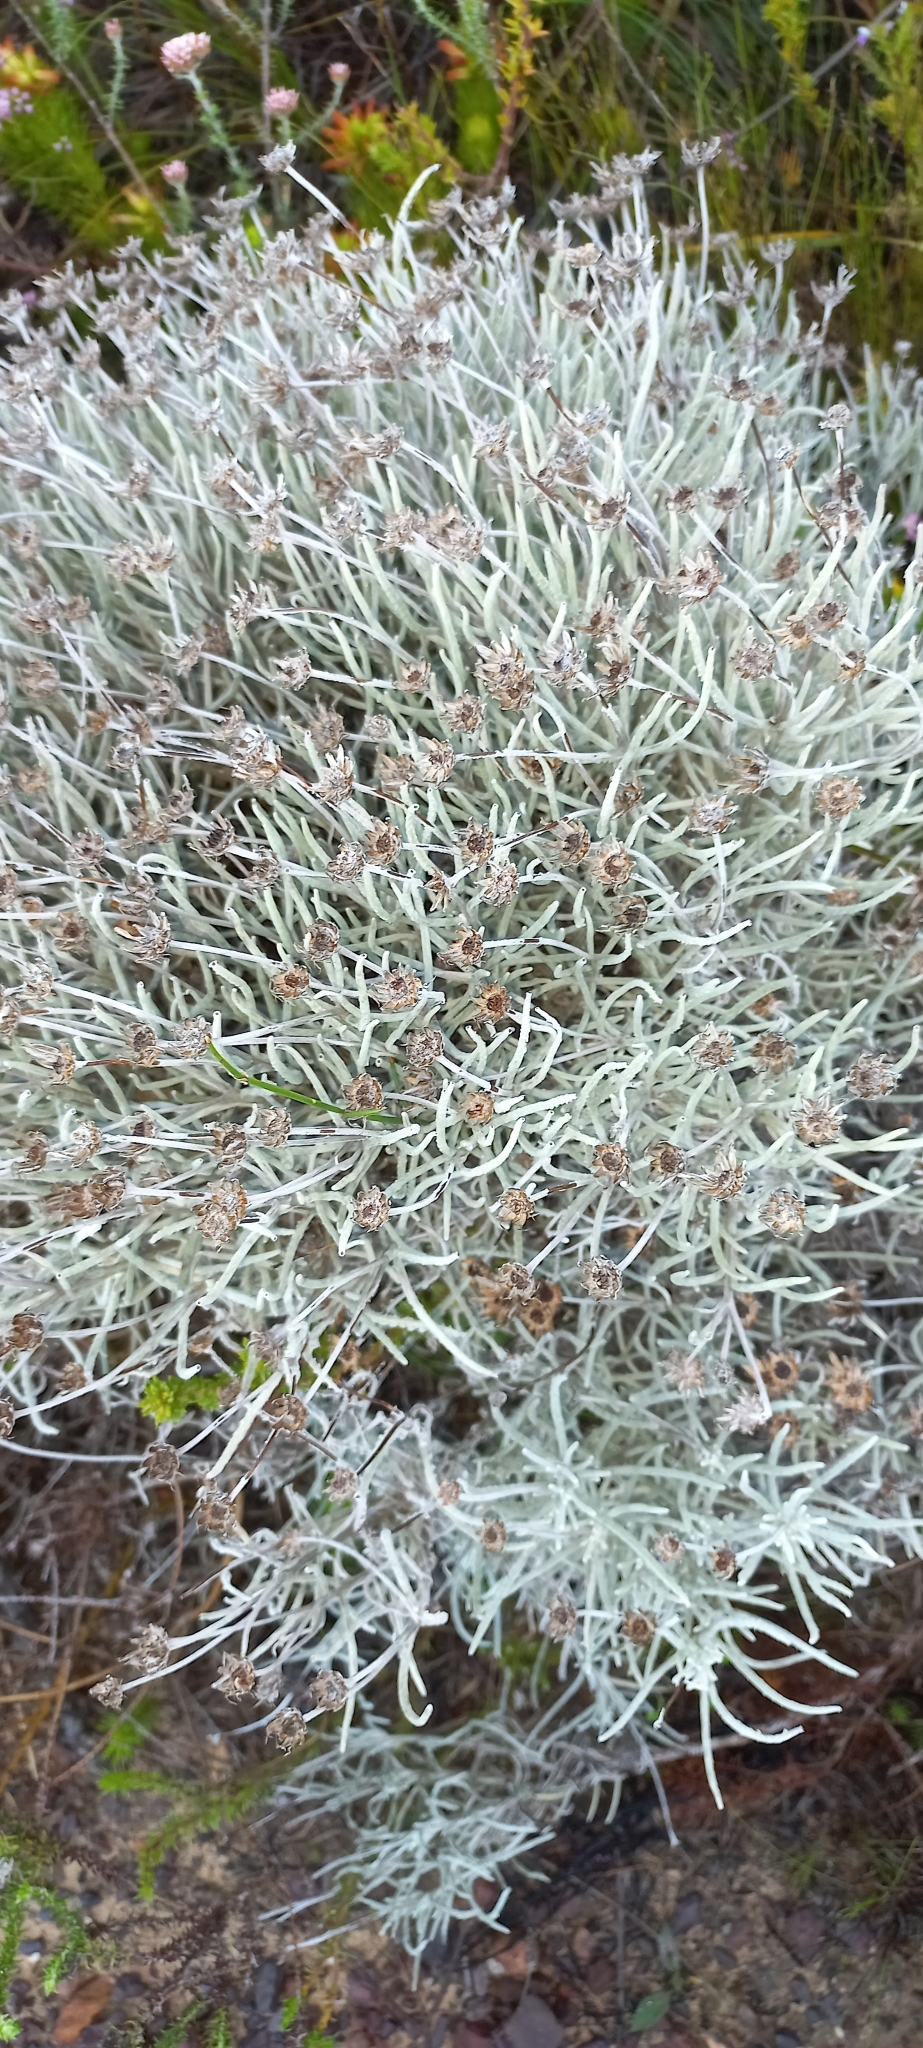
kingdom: Plantae
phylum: Tracheophyta
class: Magnoliopsida
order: Asterales
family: Asteraceae
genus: Syncarpha
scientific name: Syncarpha gnaphaloides
